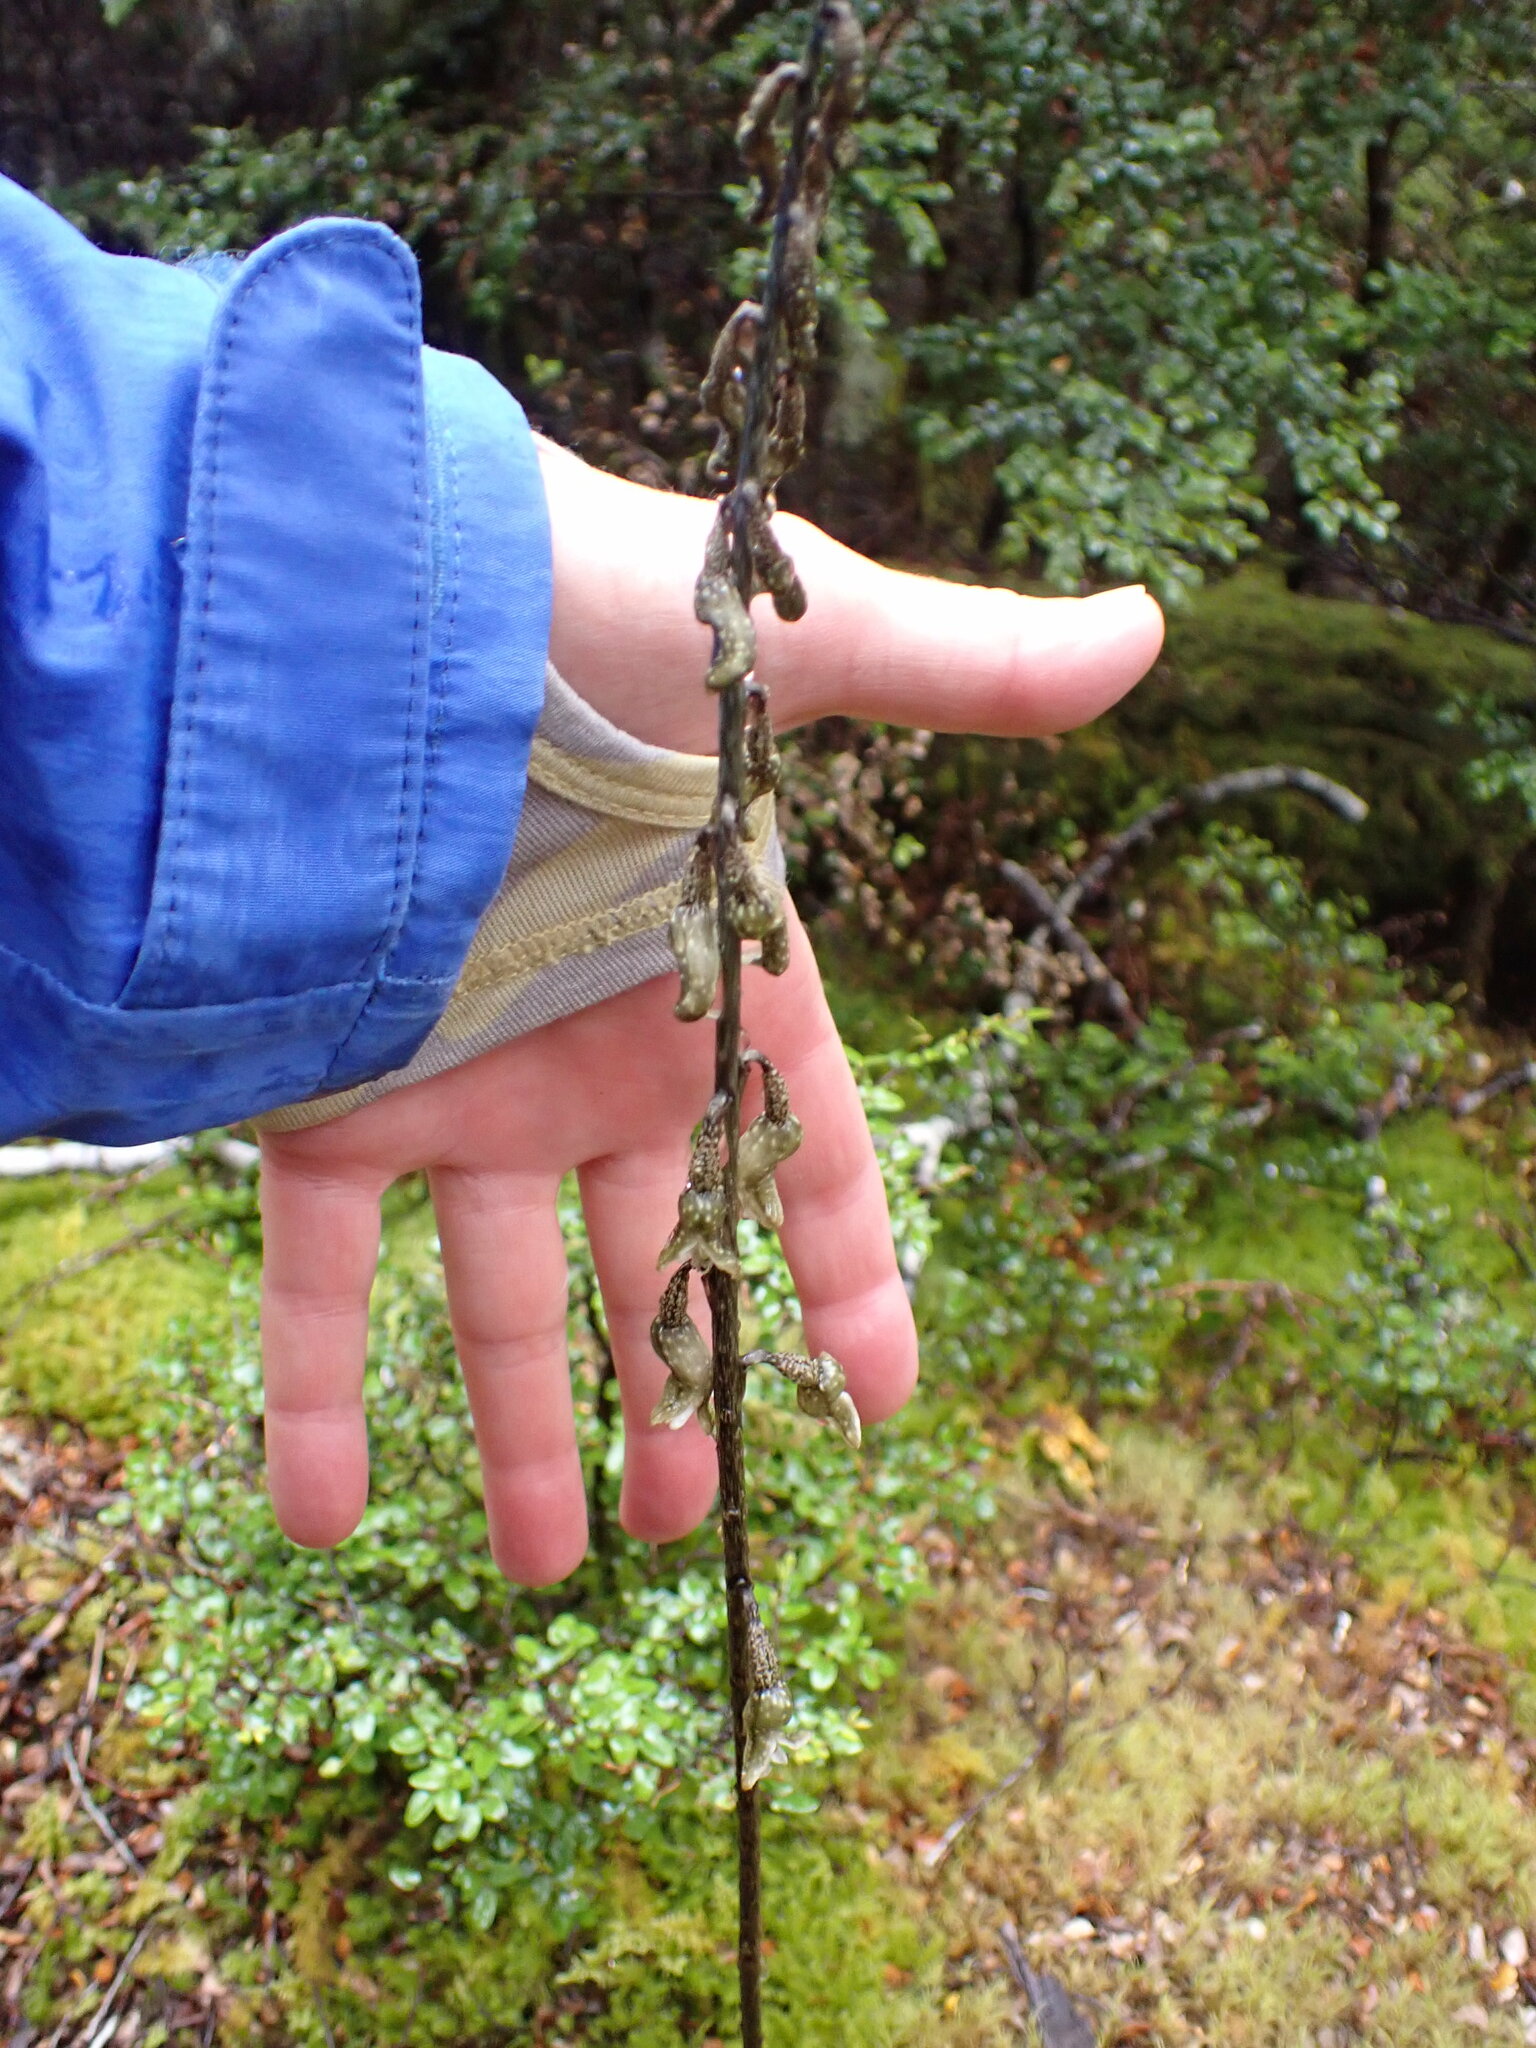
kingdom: Plantae
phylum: Tracheophyta
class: Liliopsida
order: Asparagales
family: Orchidaceae
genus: Gastrodia
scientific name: Gastrodia cunninghamii
